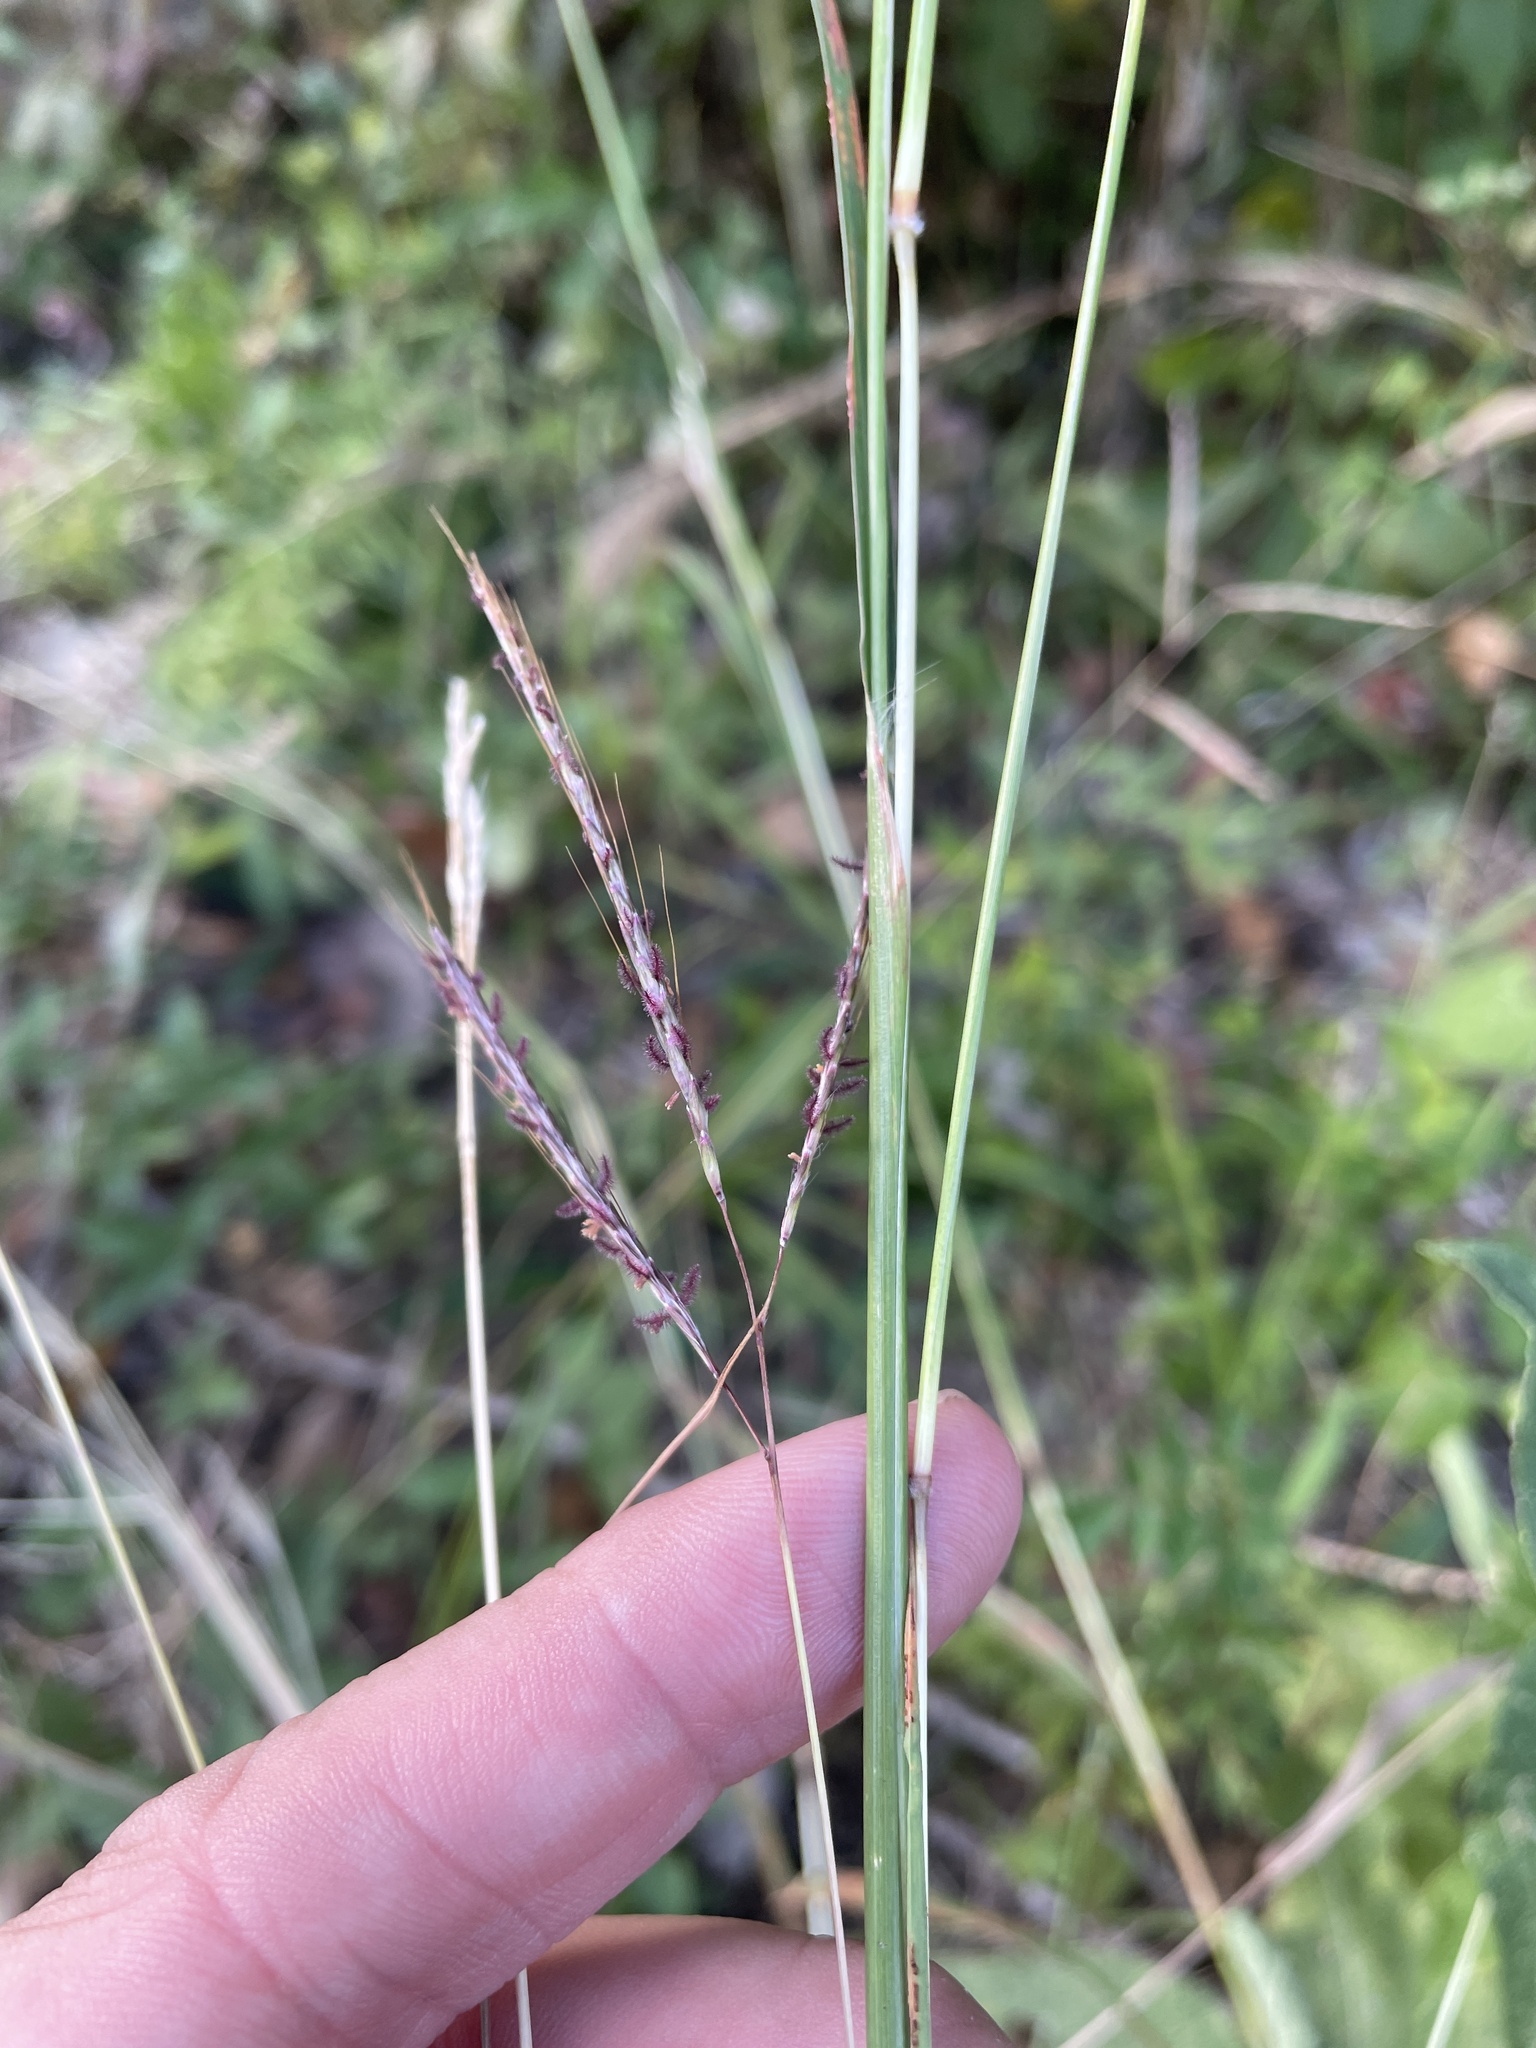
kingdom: Plantae
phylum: Tracheophyta
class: Liliopsida
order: Poales
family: Poaceae
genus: Bothriochloa
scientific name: Bothriochloa ischaemum
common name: Yellow bluestem
